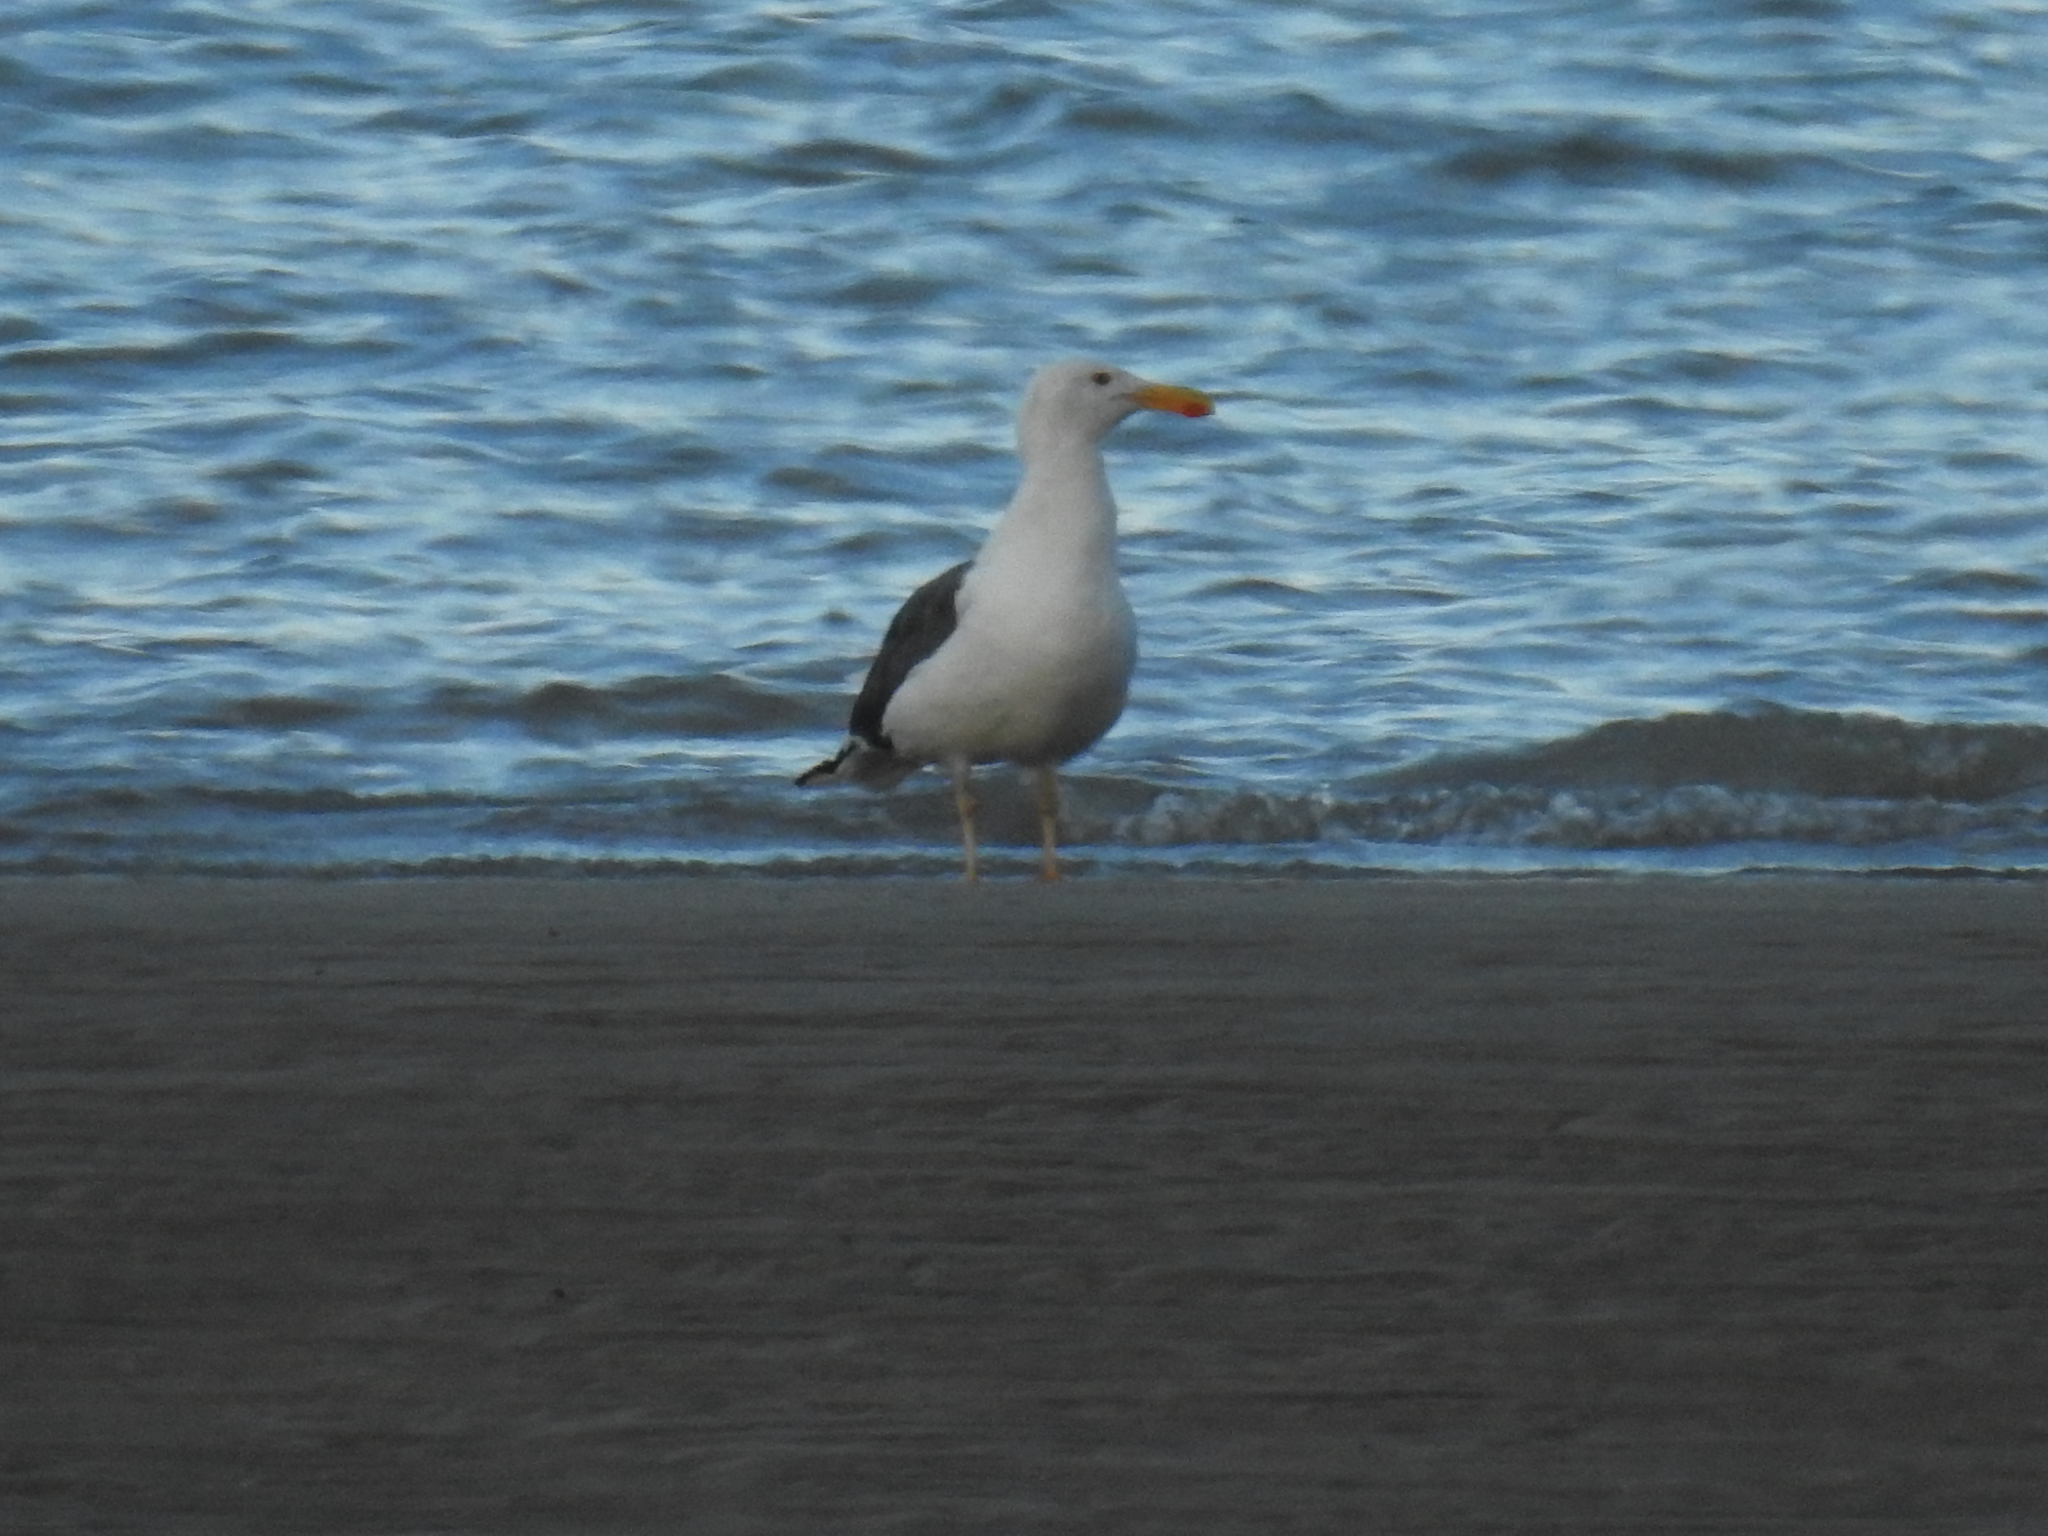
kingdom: Animalia
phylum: Chordata
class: Aves
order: Charadriiformes
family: Laridae
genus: Larus
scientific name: Larus livens
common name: Yellow-footed gull
